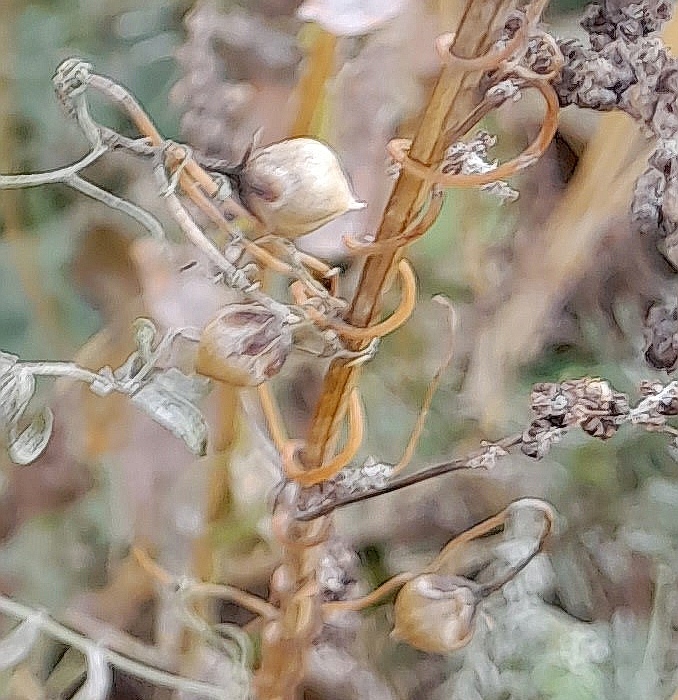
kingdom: Plantae
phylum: Tracheophyta
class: Magnoliopsida
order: Solanales
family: Convolvulaceae
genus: Convolvulus
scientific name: Convolvulus arvensis
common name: Field bindweed
